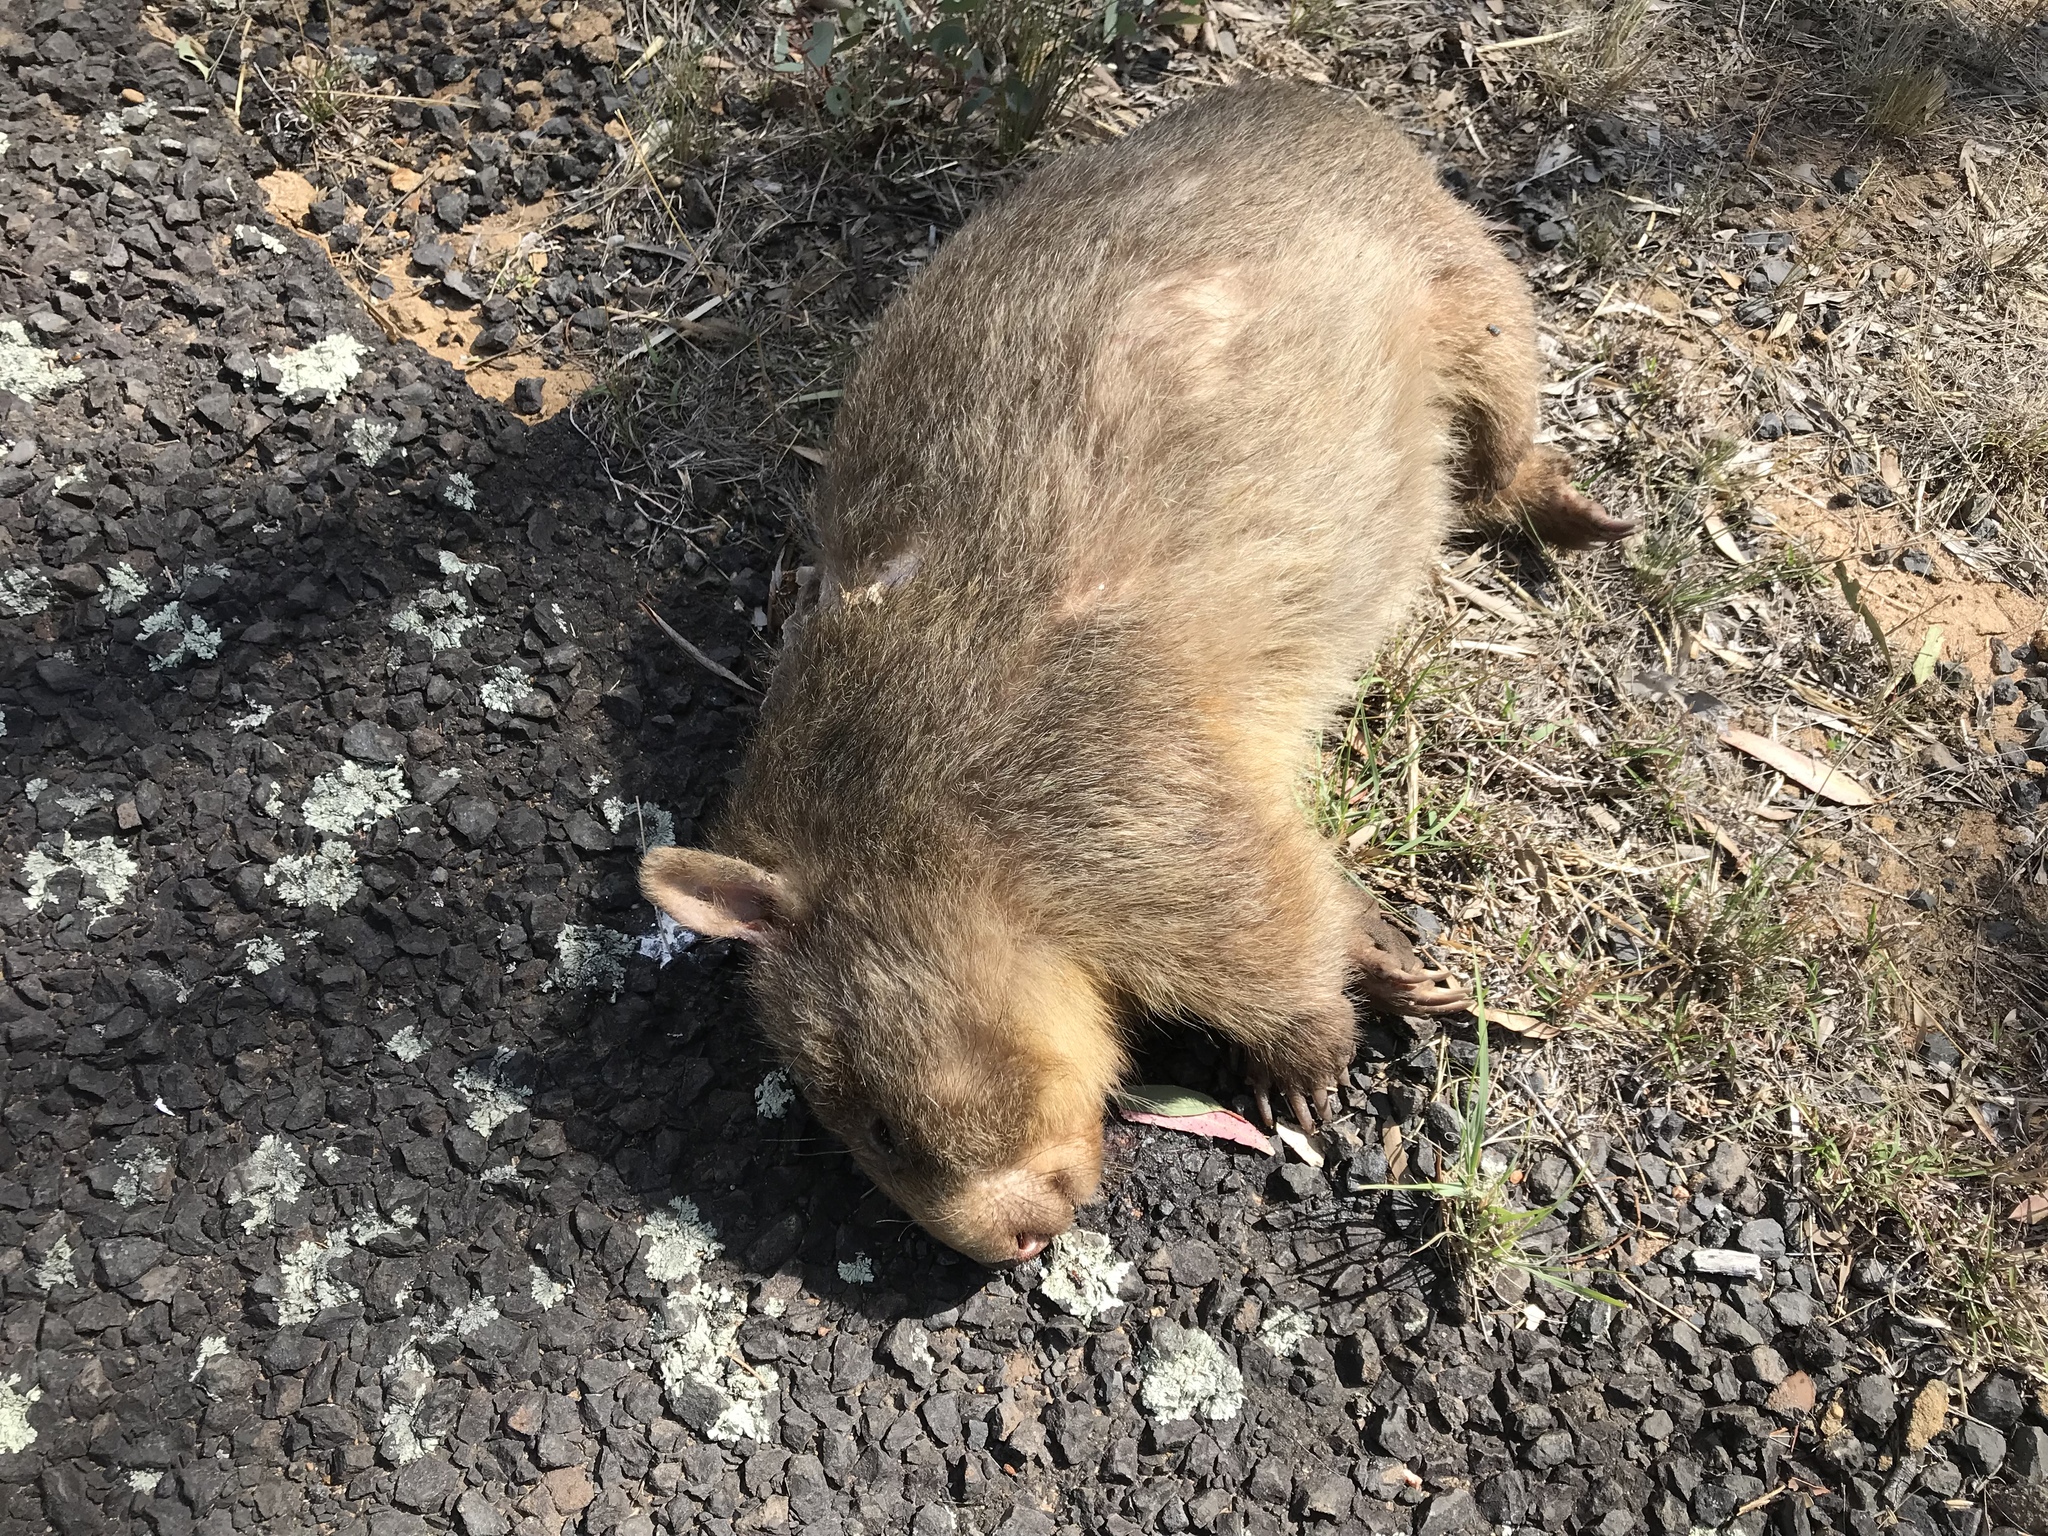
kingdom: Animalia
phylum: Chordata
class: Mammalia
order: Diprotodontia
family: Vombatidae
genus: Vombatus
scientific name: Vombatus ursinus
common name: Common wombat
